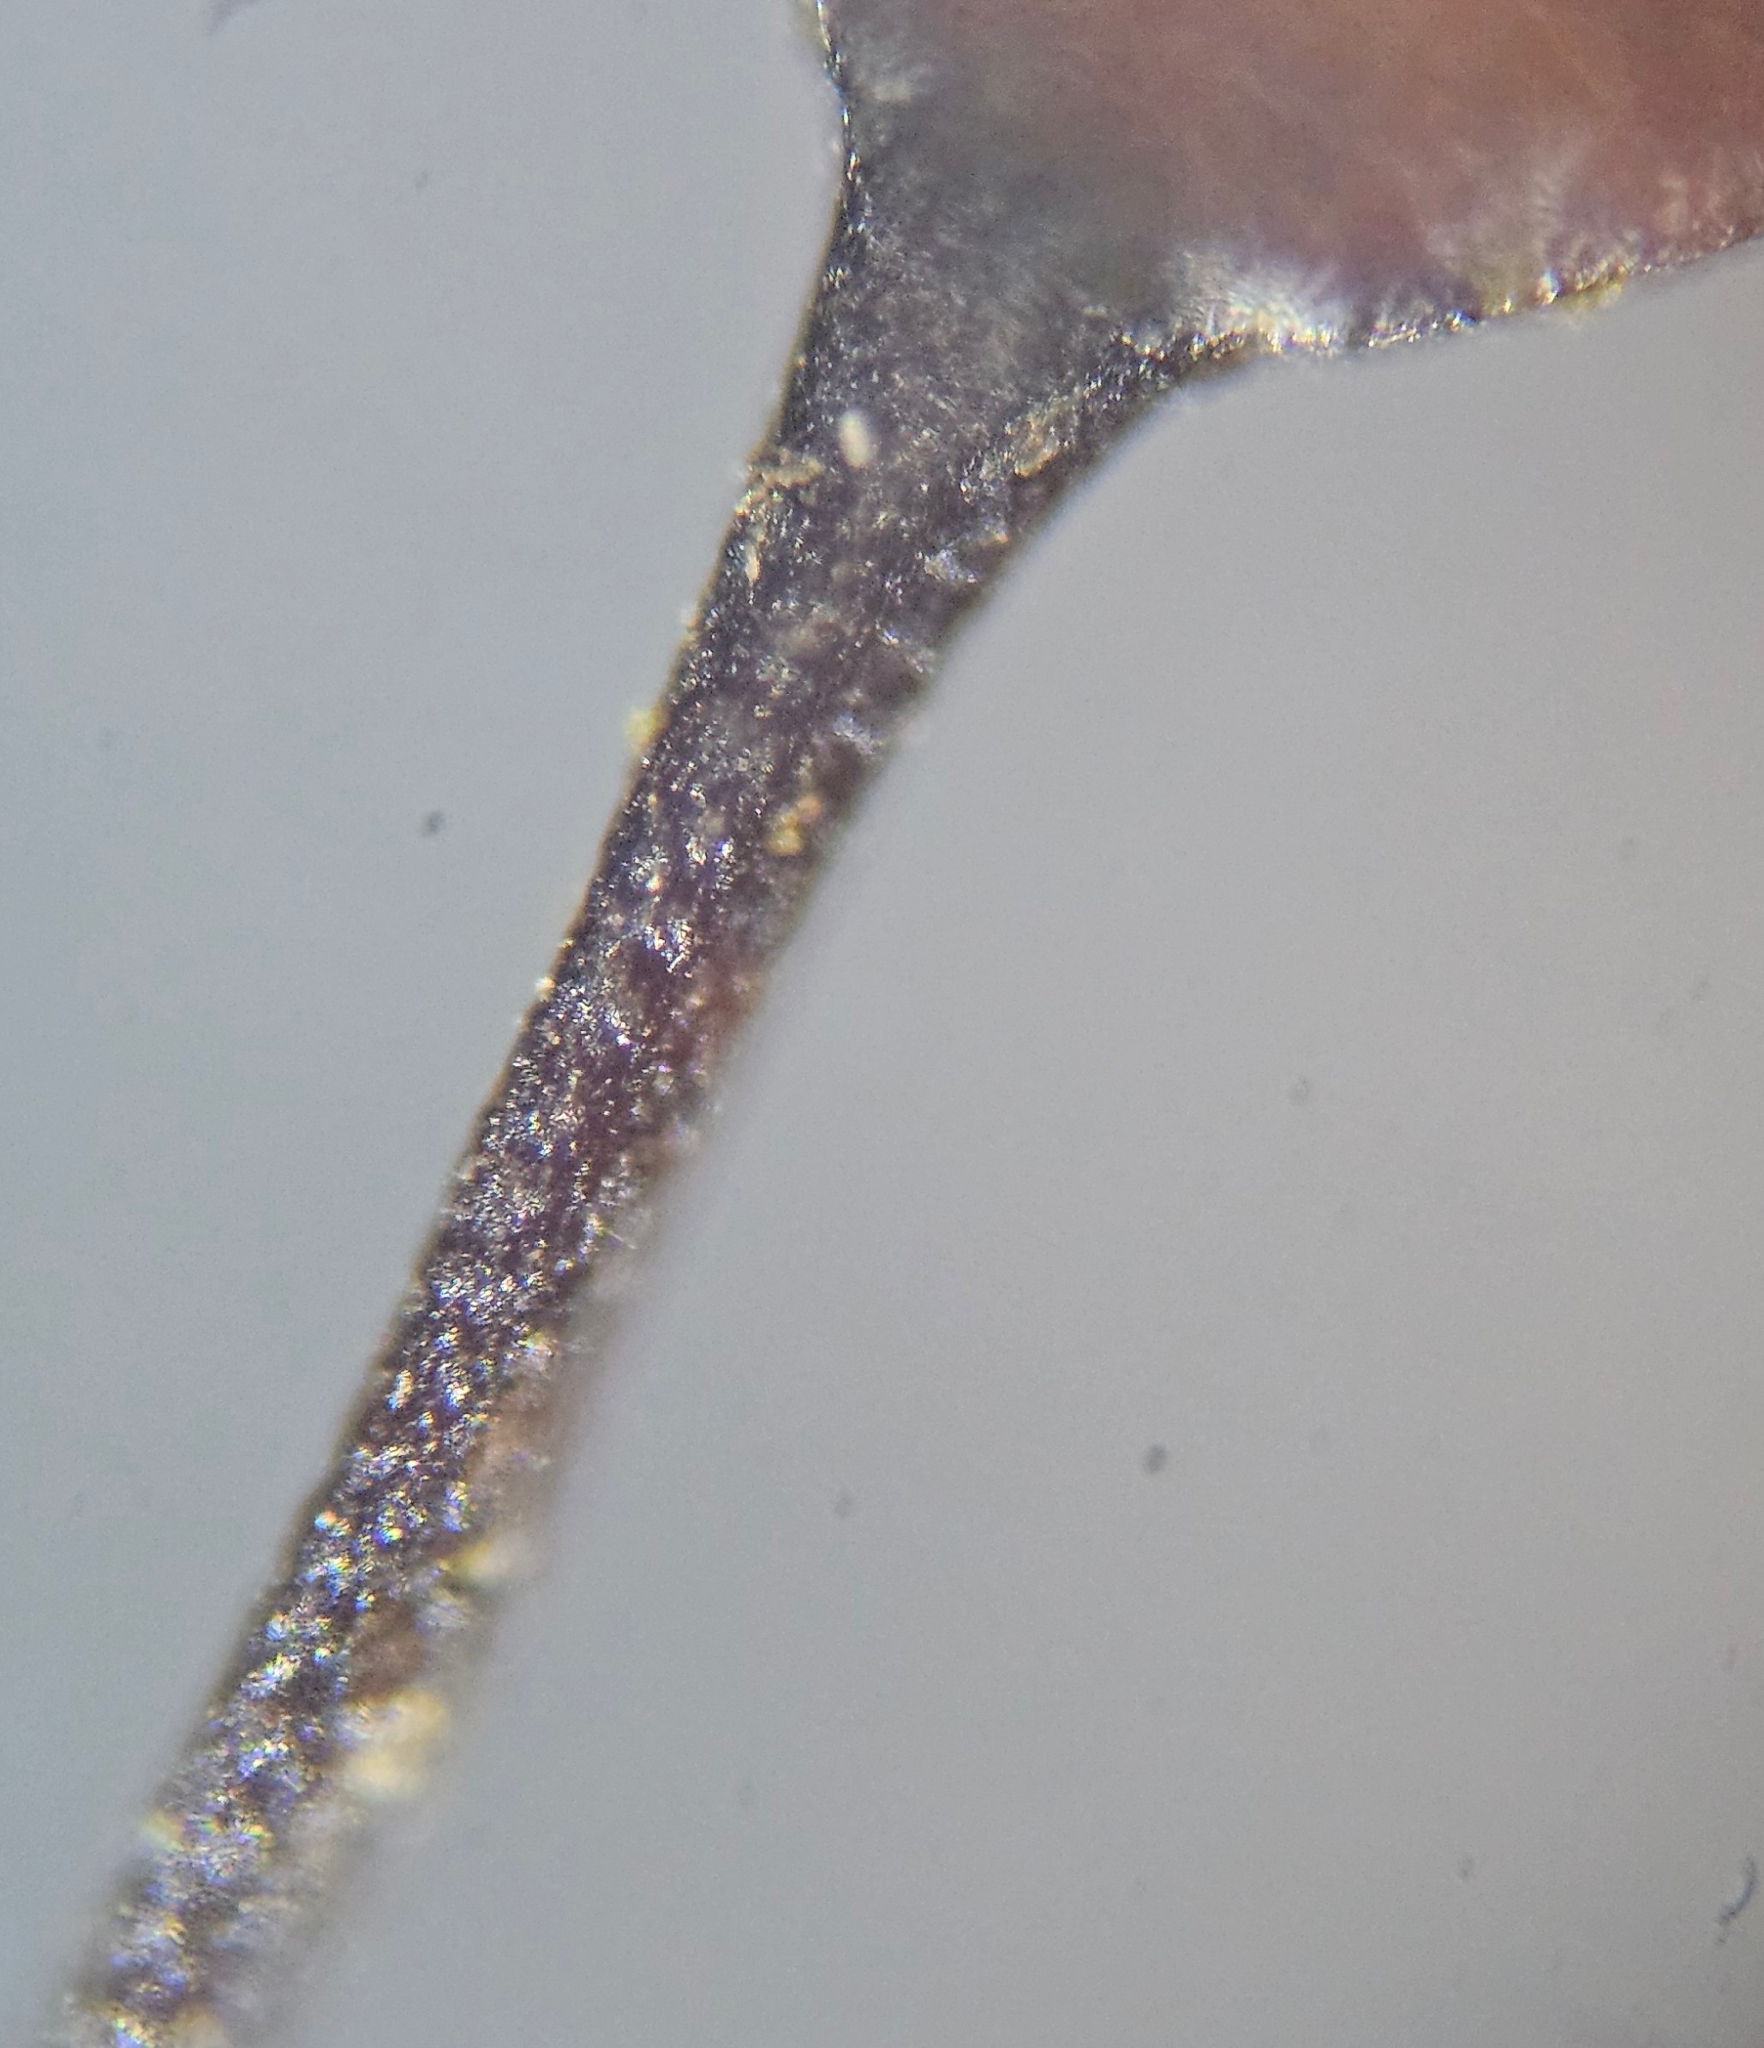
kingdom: Plantae
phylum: Bryophyta
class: Bryopsida
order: Hypnales
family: Brachytheciaceae
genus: Sciuro-hypnum
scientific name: Sciuro-hypnum populeum
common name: Matted feather-moss
